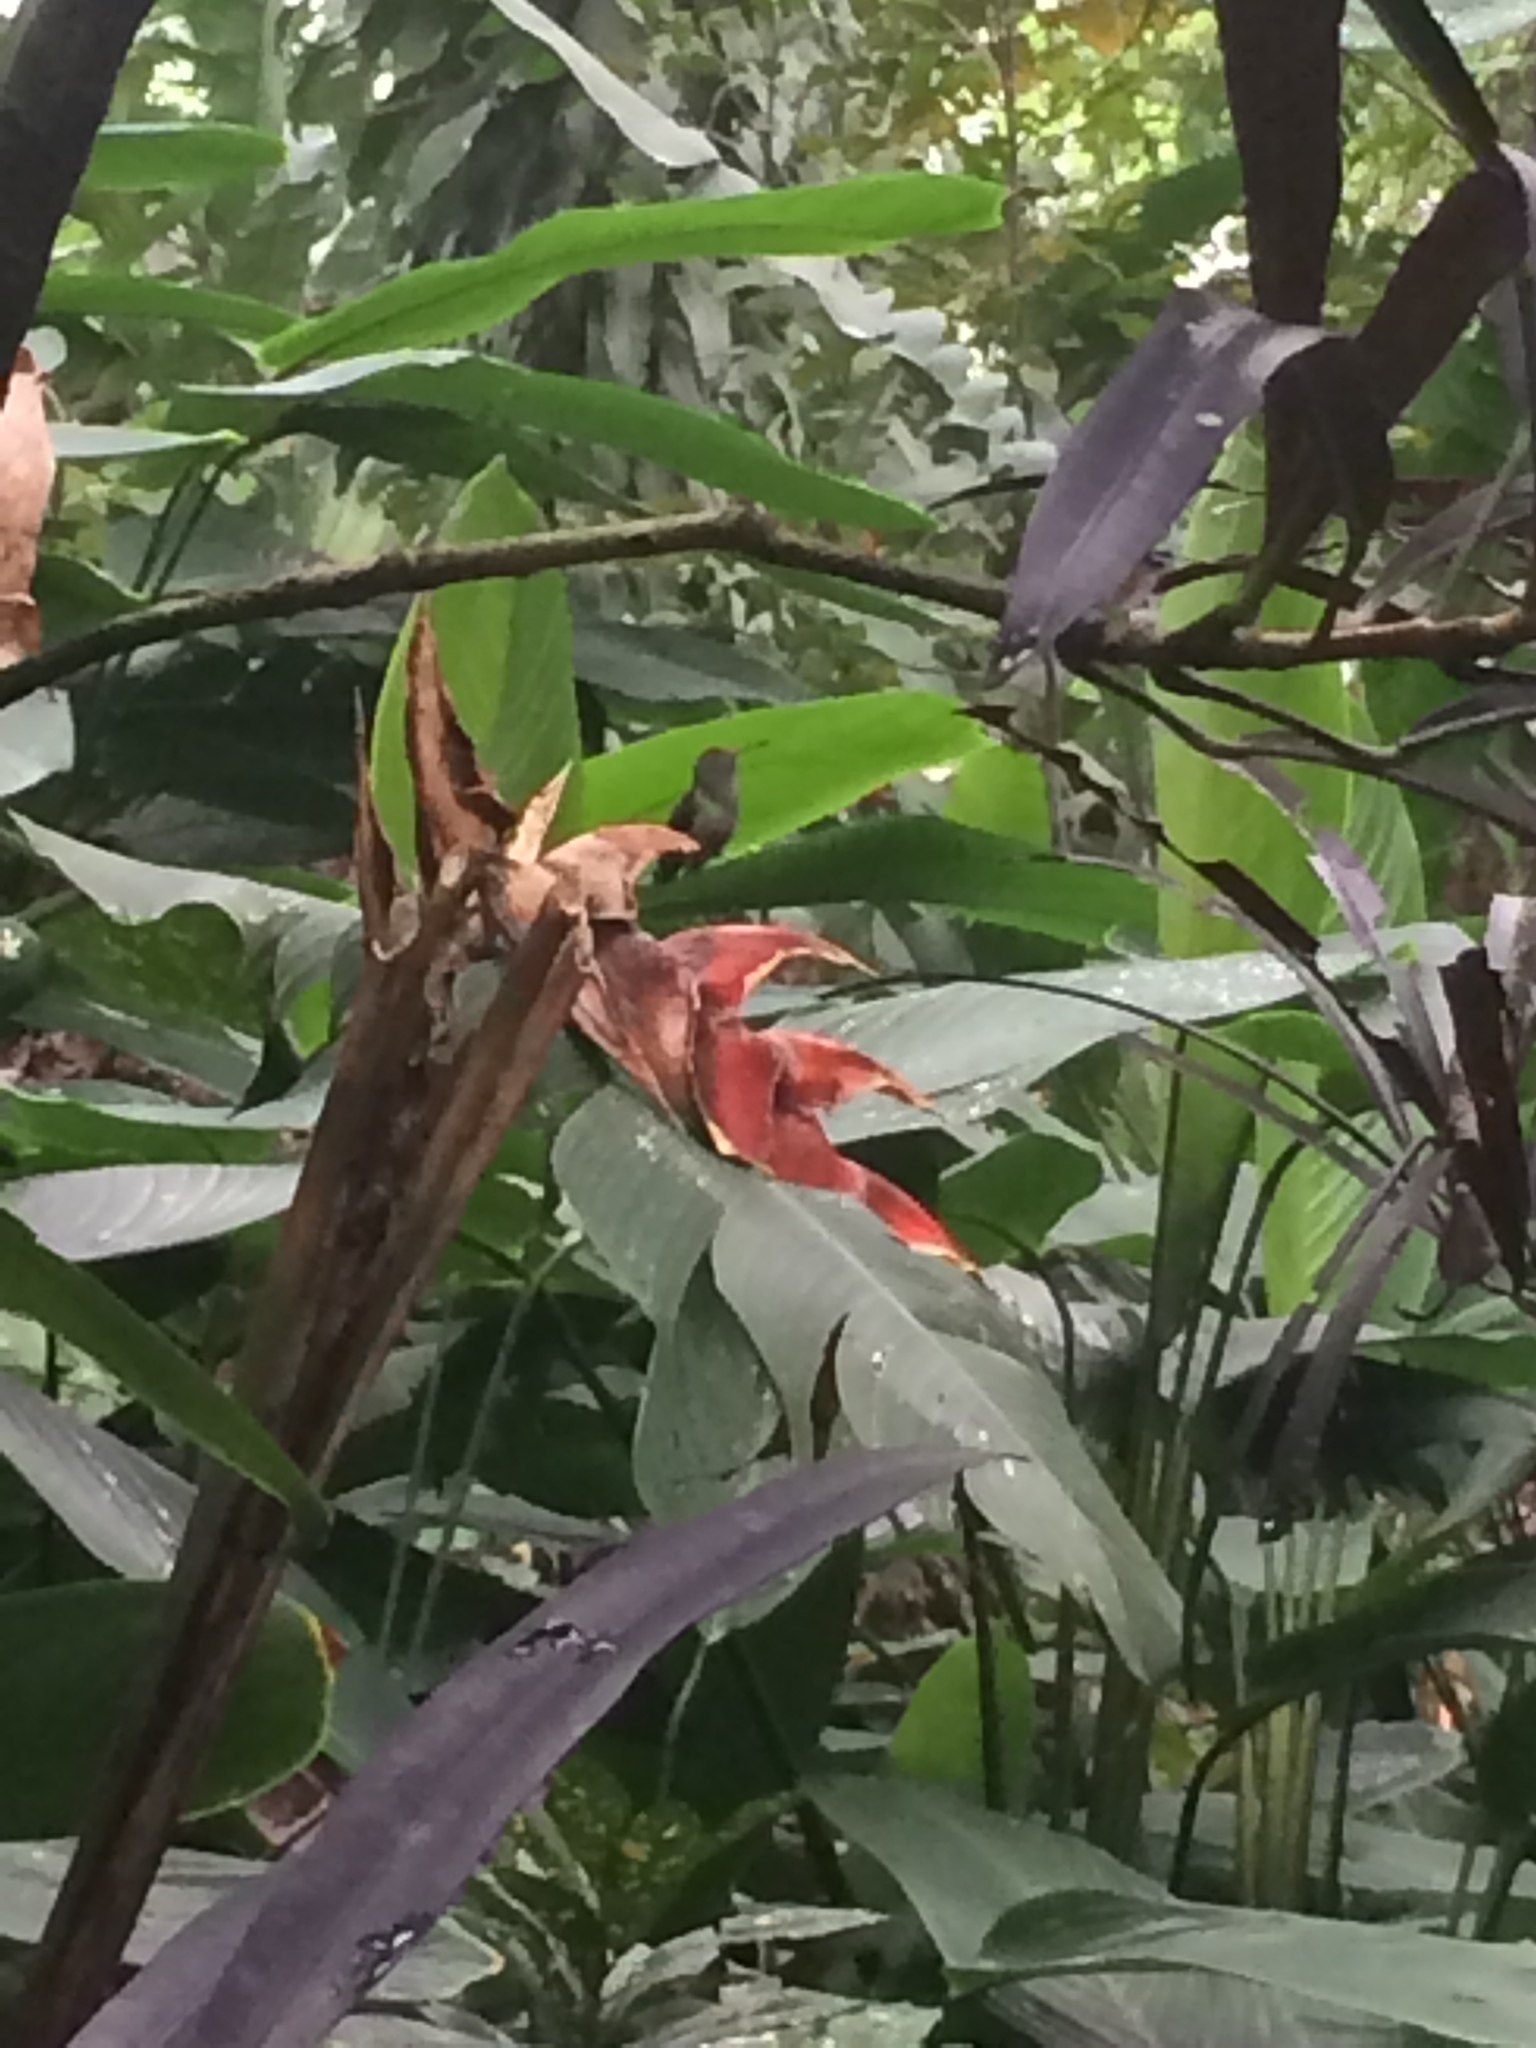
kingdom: Animalia
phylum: Chordata
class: Aves
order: Apodiformes
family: Trochilidae
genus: Amazilia
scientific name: Amazilia tzacatl
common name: Rufous-tailed hummingbird
